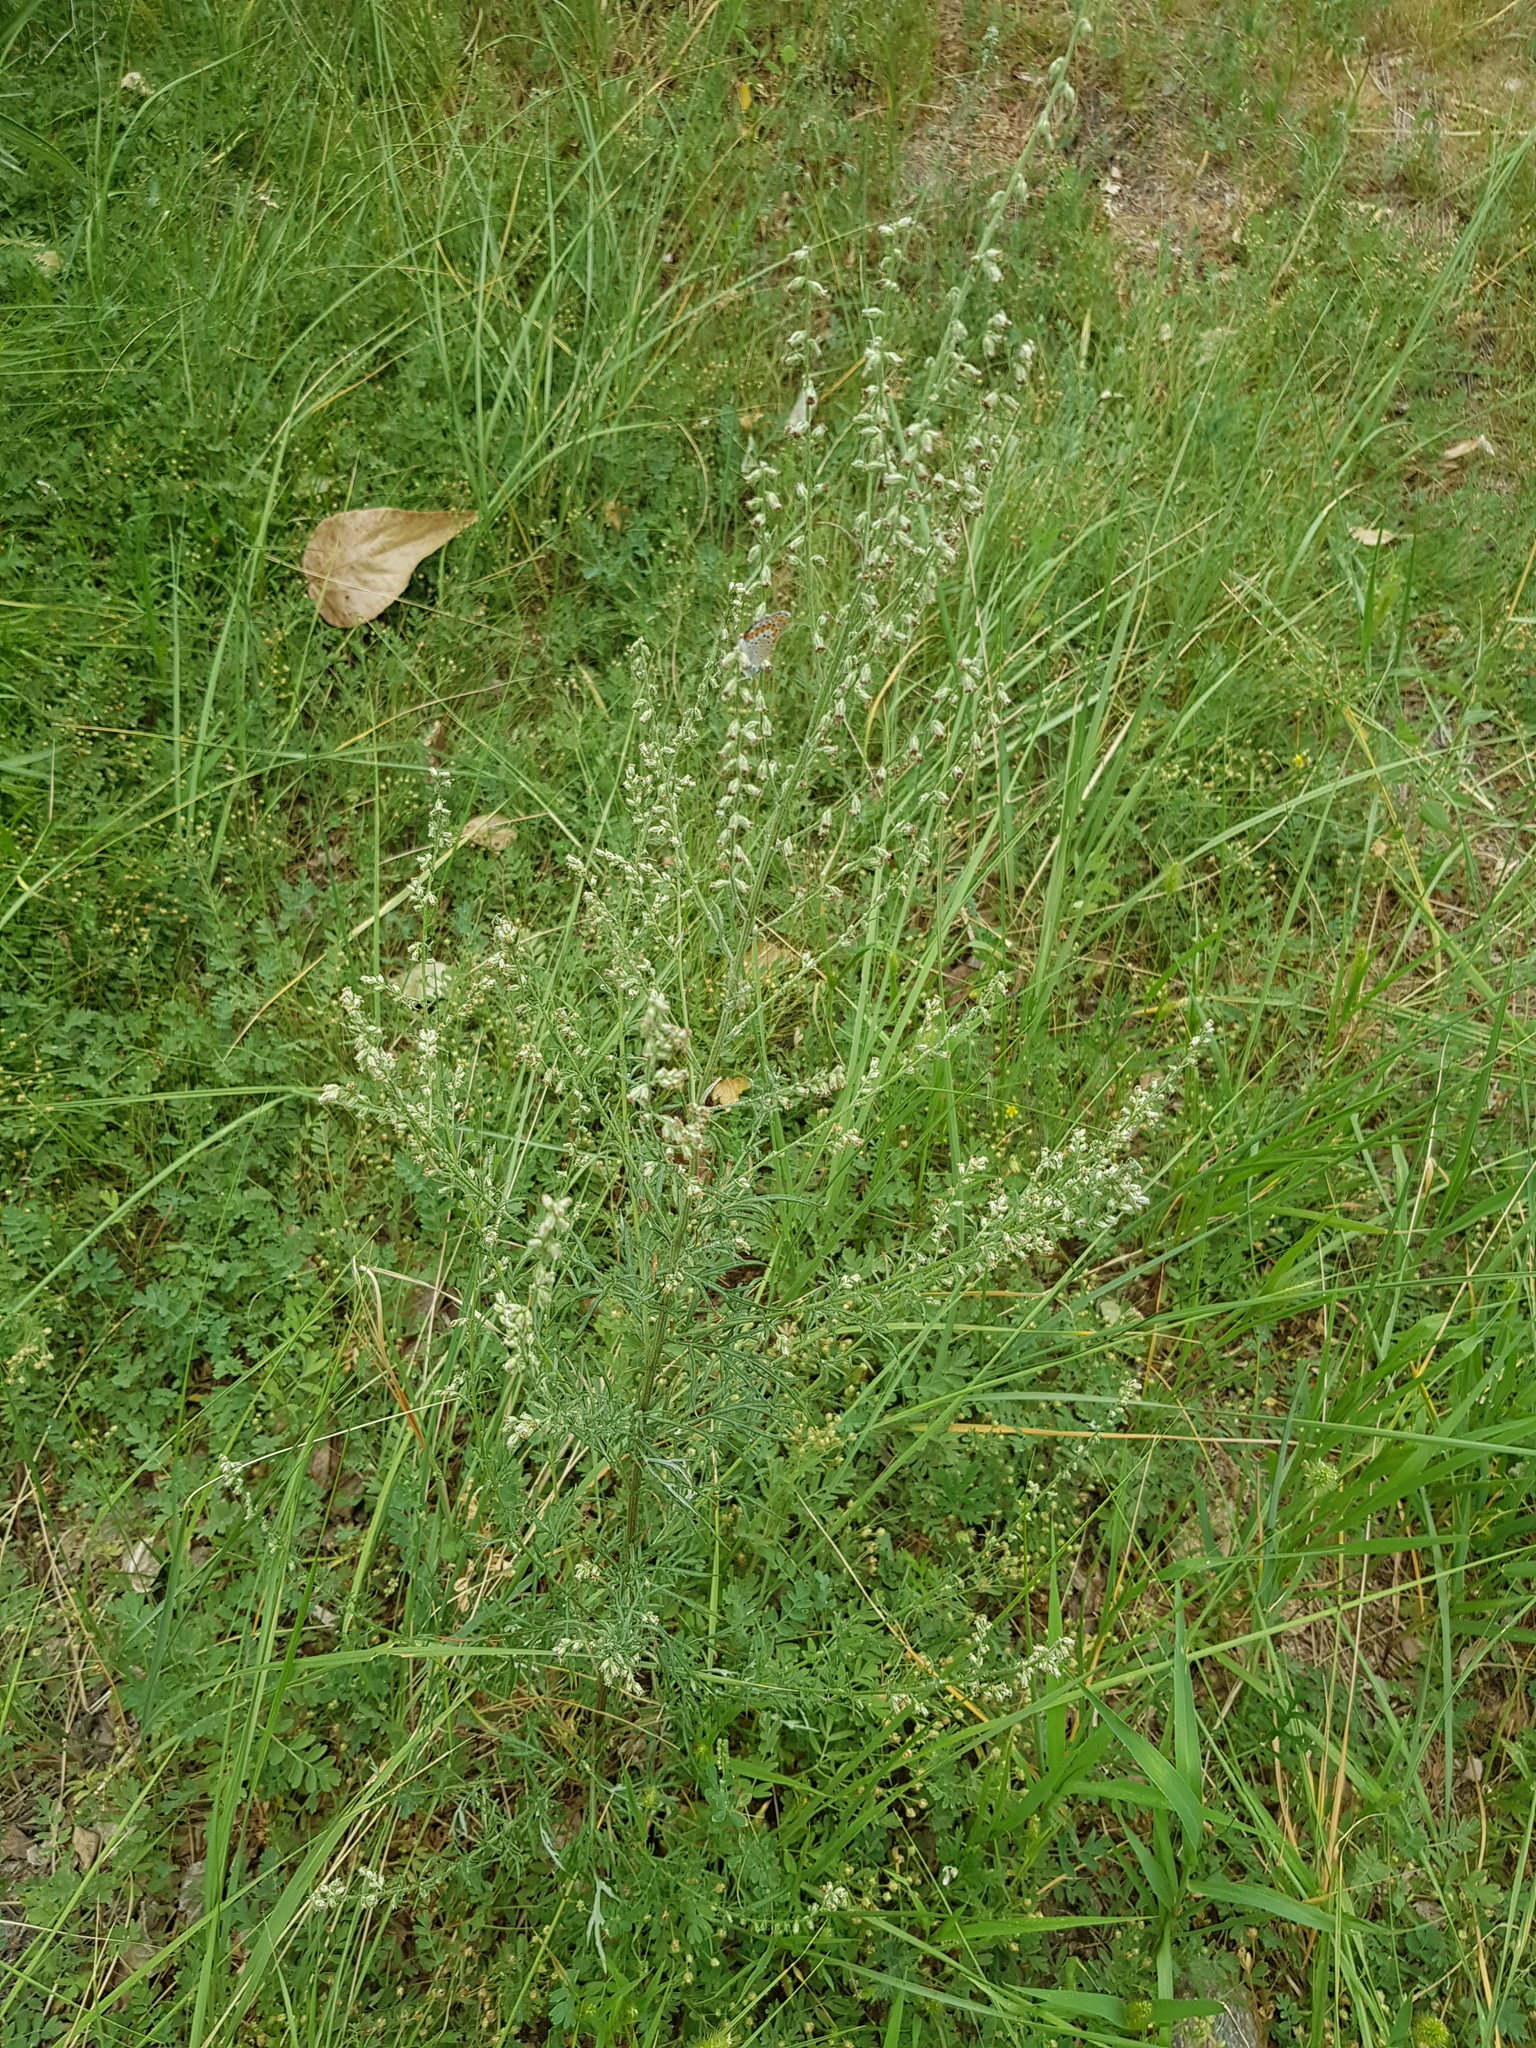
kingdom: Plantae
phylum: Tracheophyta
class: Magnoliopsida
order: Asterales
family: Asteraceae
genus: Artemisia
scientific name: Artemisia vulgaris
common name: Mugwort
